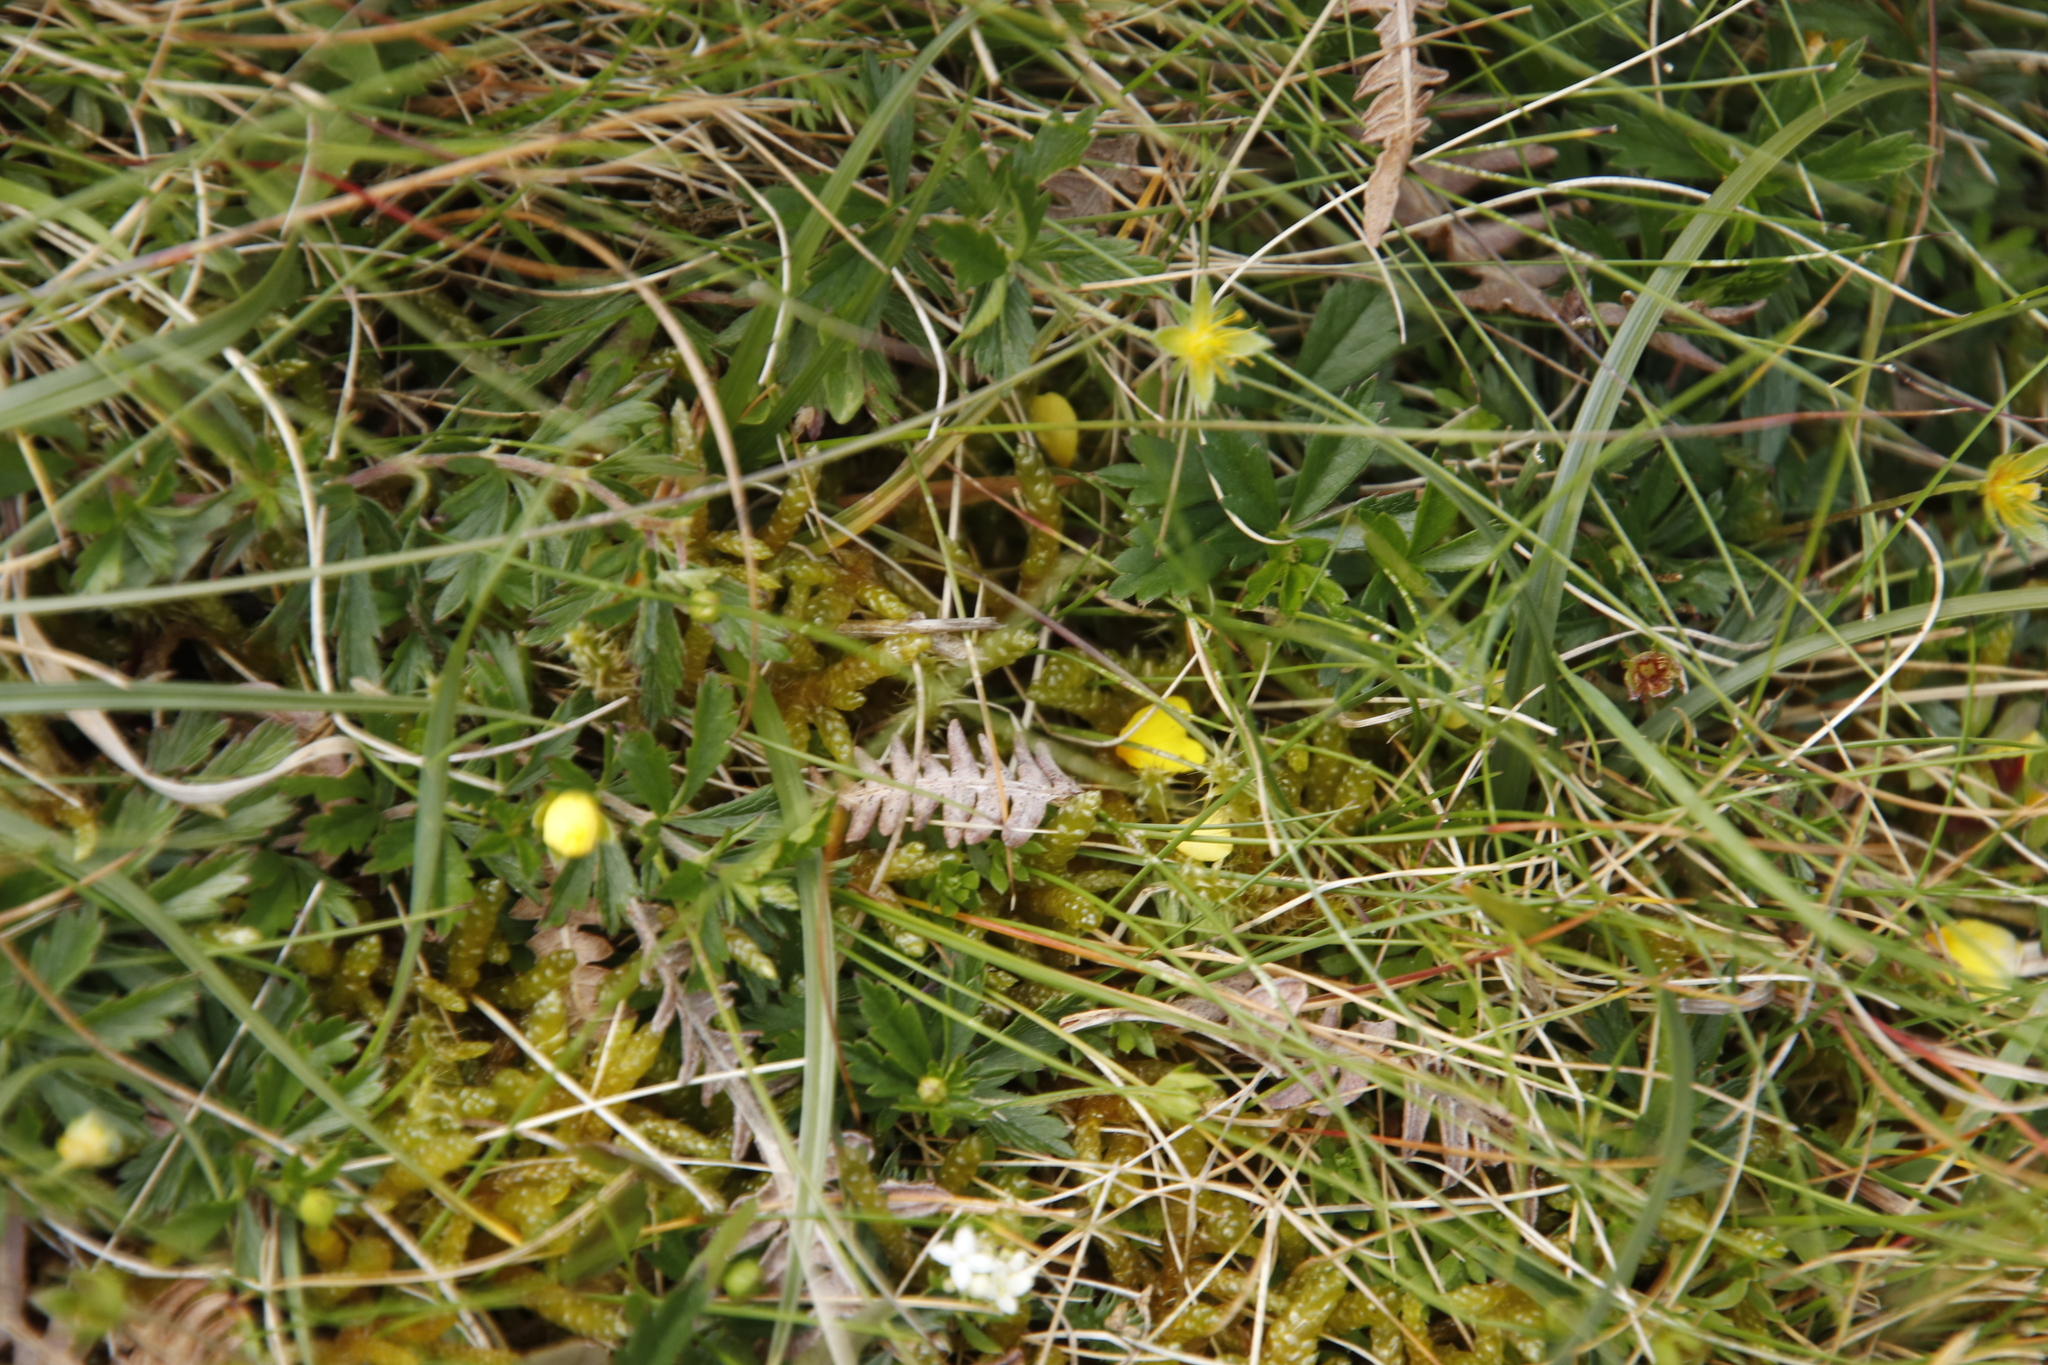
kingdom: Plantae
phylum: Tracheophyta
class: Magnoliopsida
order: Rosales
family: Rosaceae
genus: Potentilla
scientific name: Potentilla erecta
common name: Tormentil
